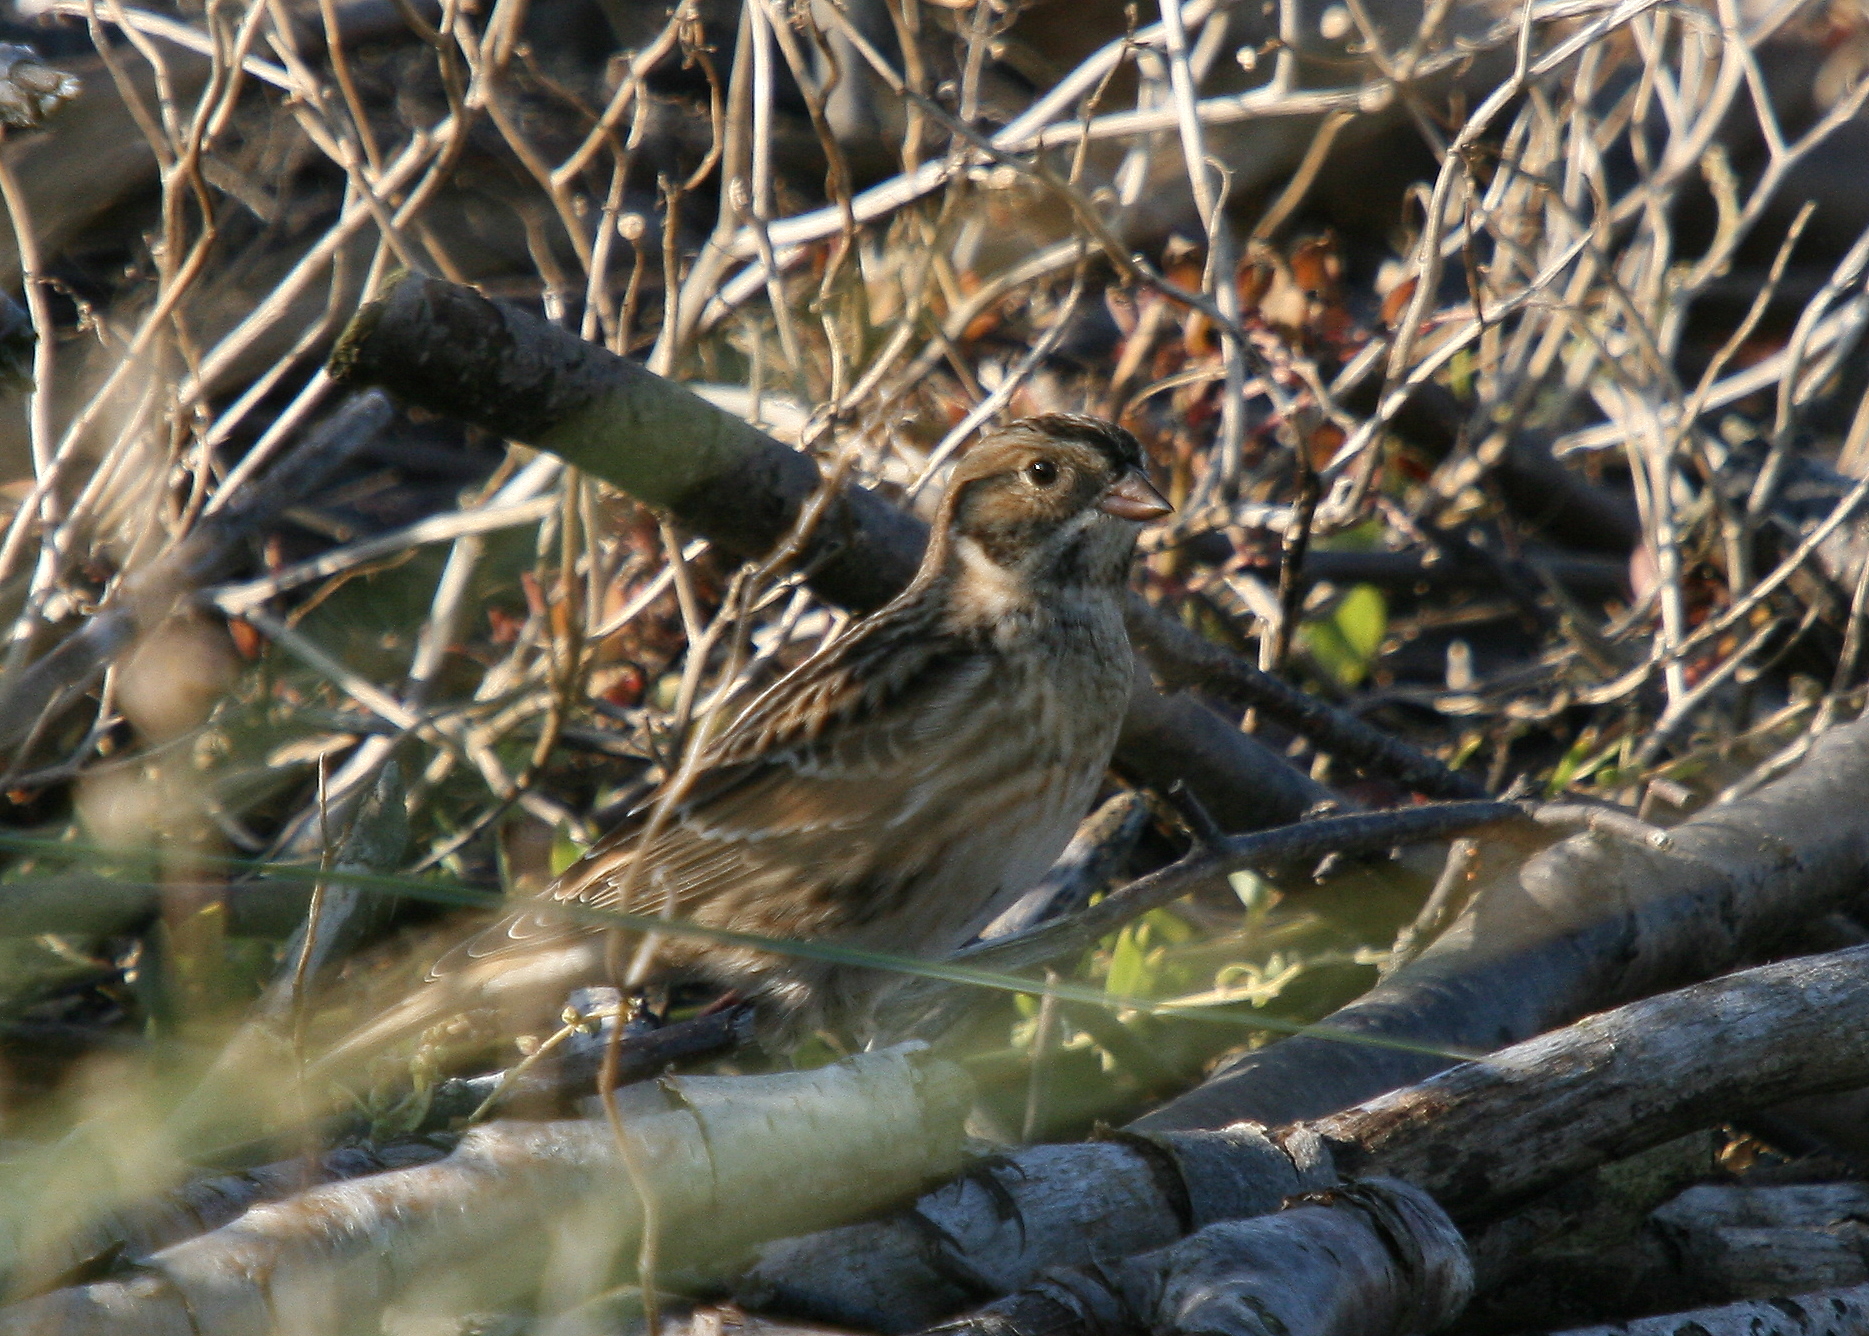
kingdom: Animalia
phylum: Chordata
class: Aves
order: Passeriformes
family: Calcariidae
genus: Calcarius
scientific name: Calcarius lapponicus
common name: Lapland longspur
